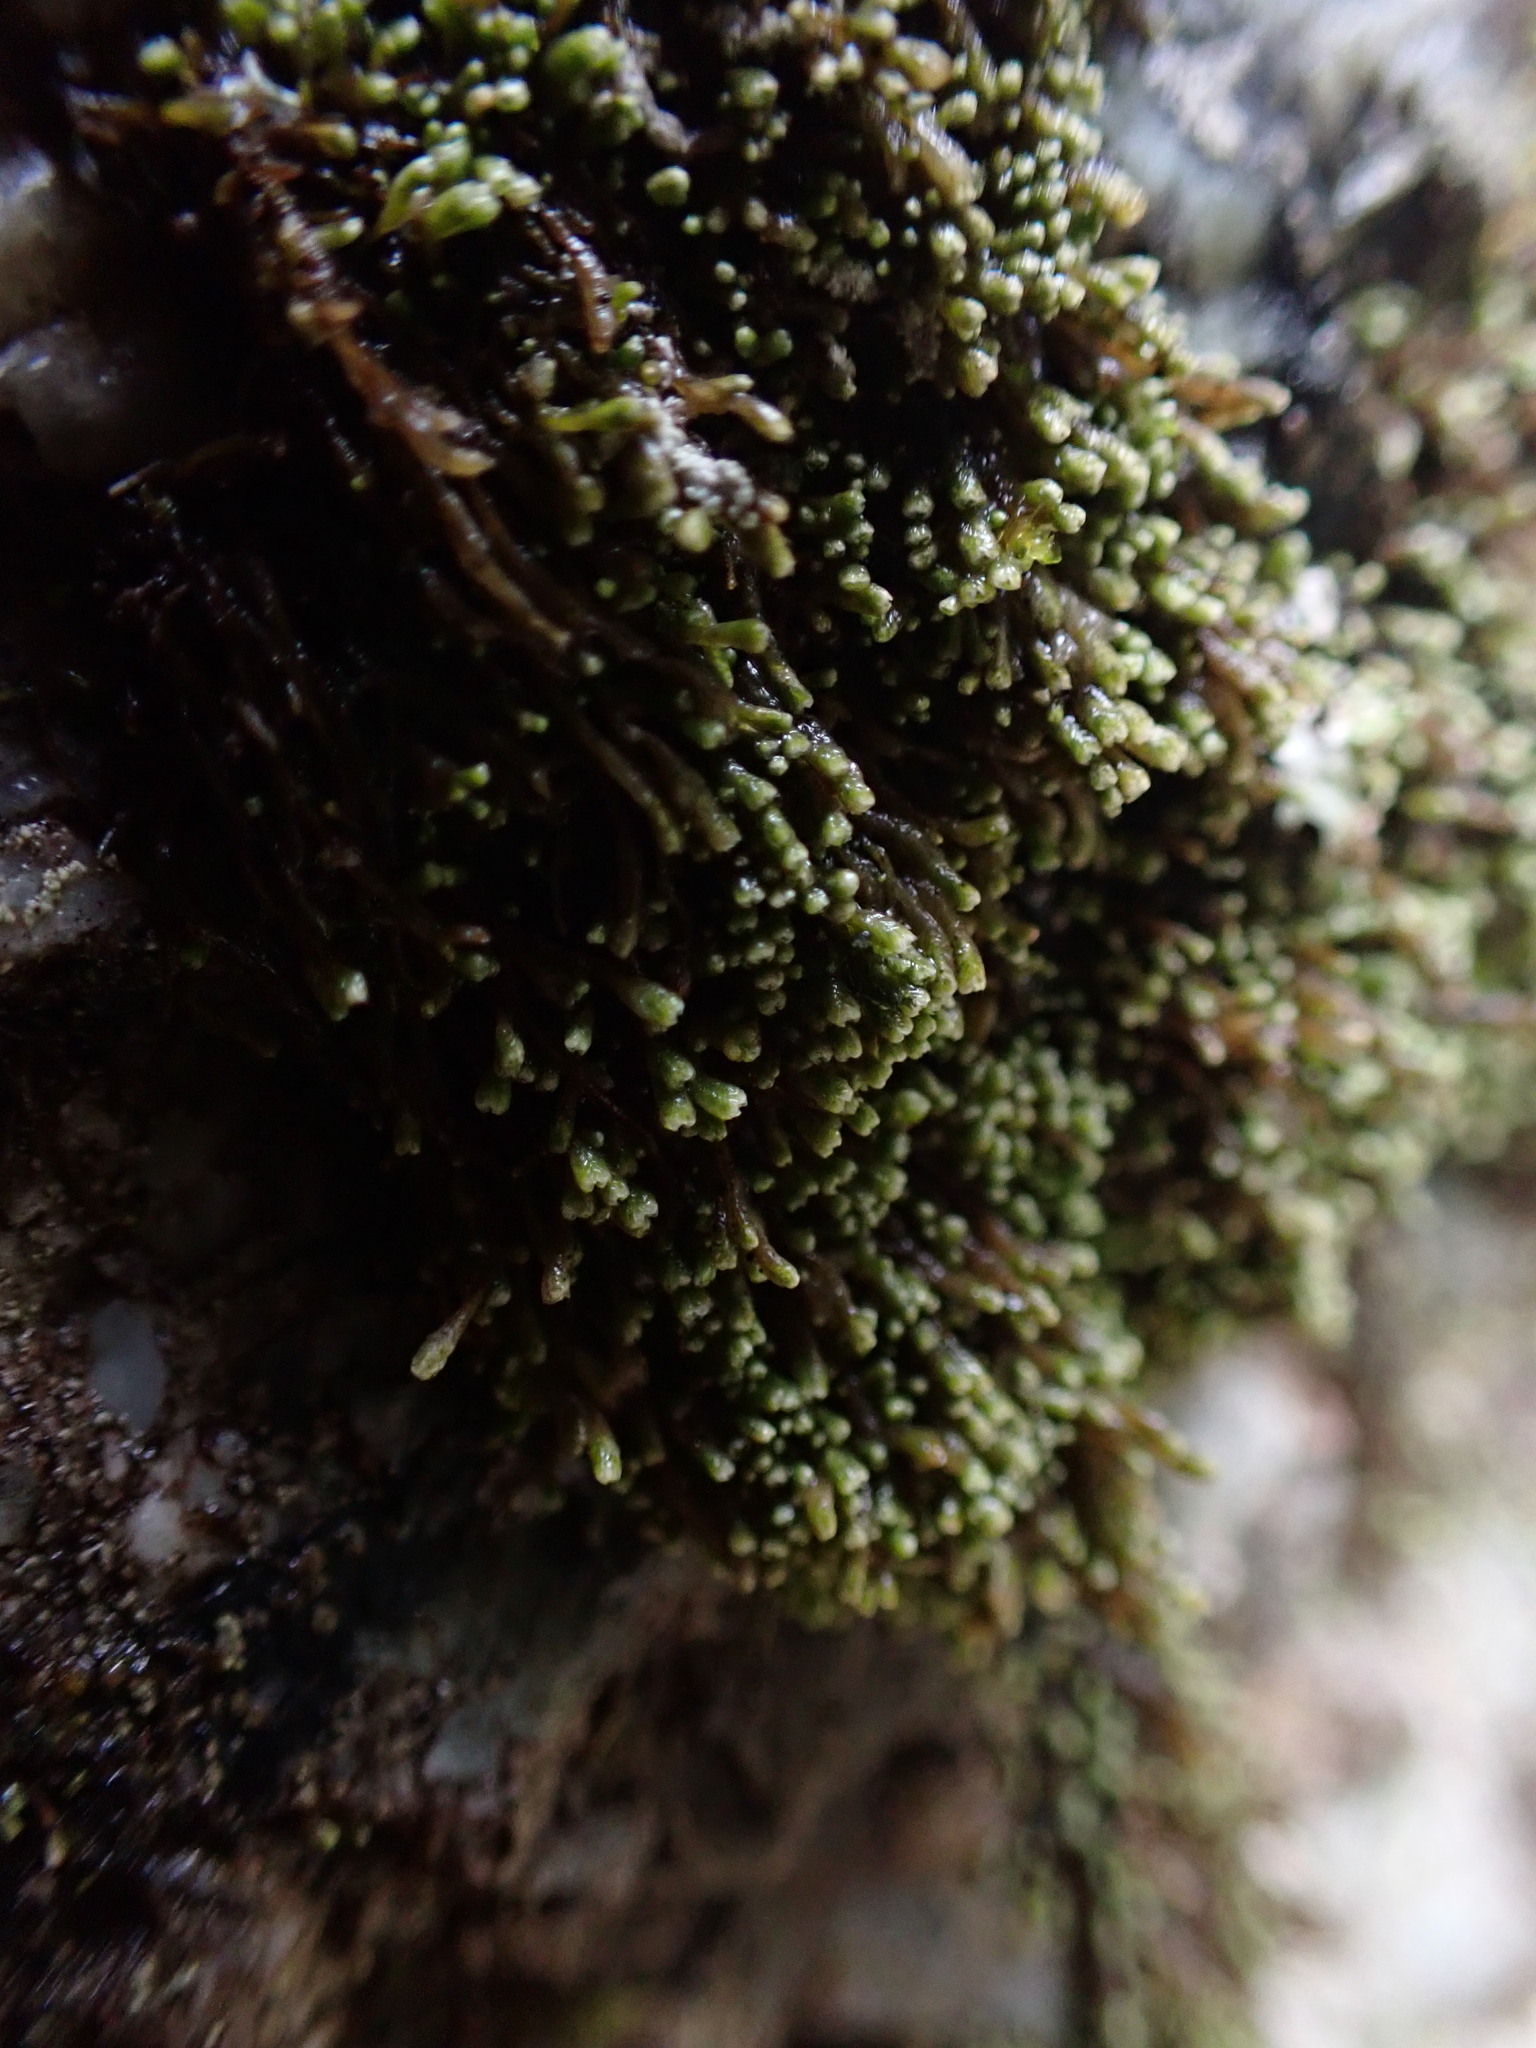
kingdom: Plantae
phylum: Marchantiophyta
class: Jungermanniopsida
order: Jungermanniales
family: Gymnomitriaceae
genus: Gymnomitrion
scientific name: Gymnomitrion obtusum
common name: White frostwort
